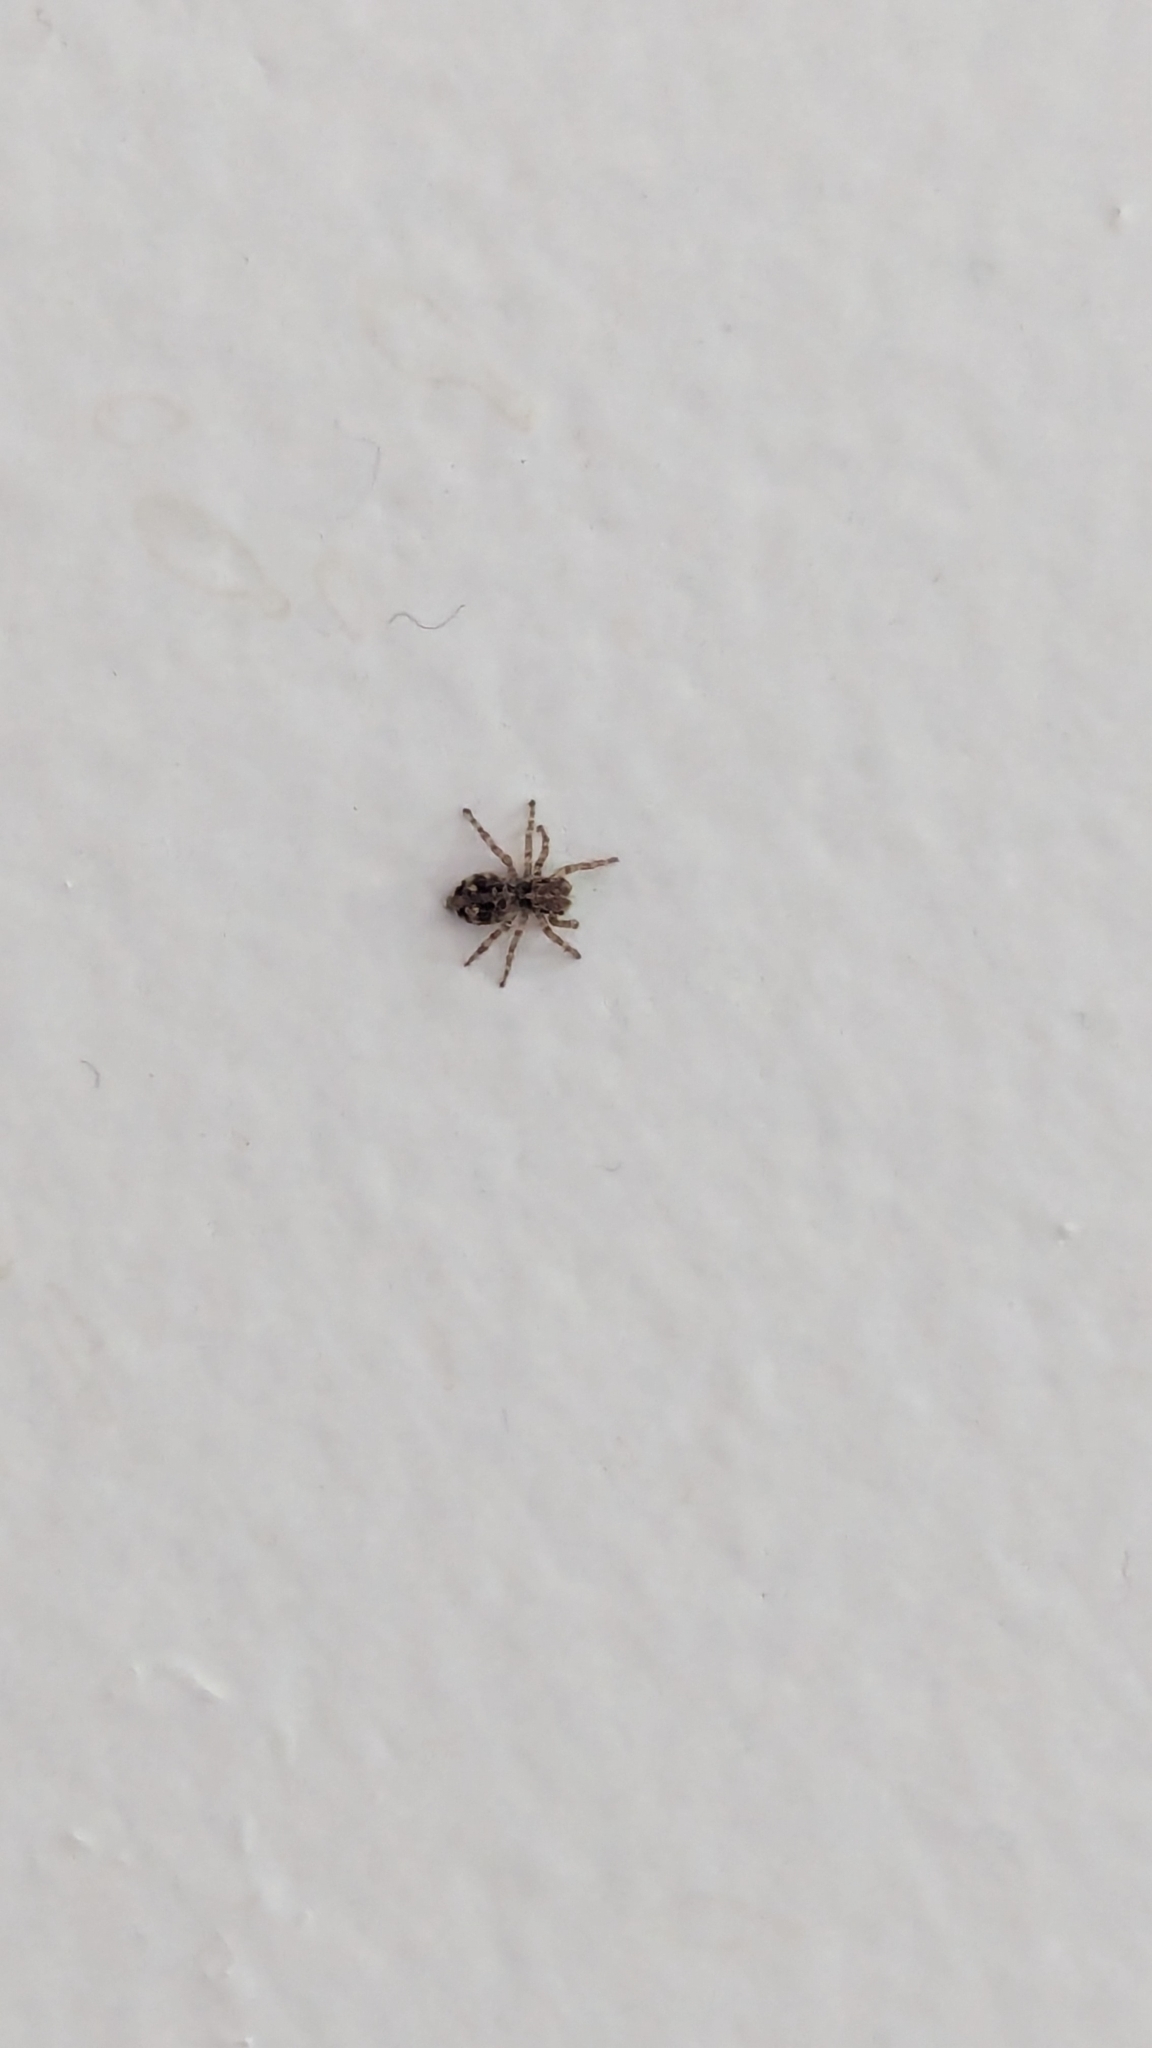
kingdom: Animalia
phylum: Arthropoda
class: Arachnida
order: Araneae
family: Salticidae
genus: Attulus
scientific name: Attulus fasciger
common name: Asiatic wall jumping spider
